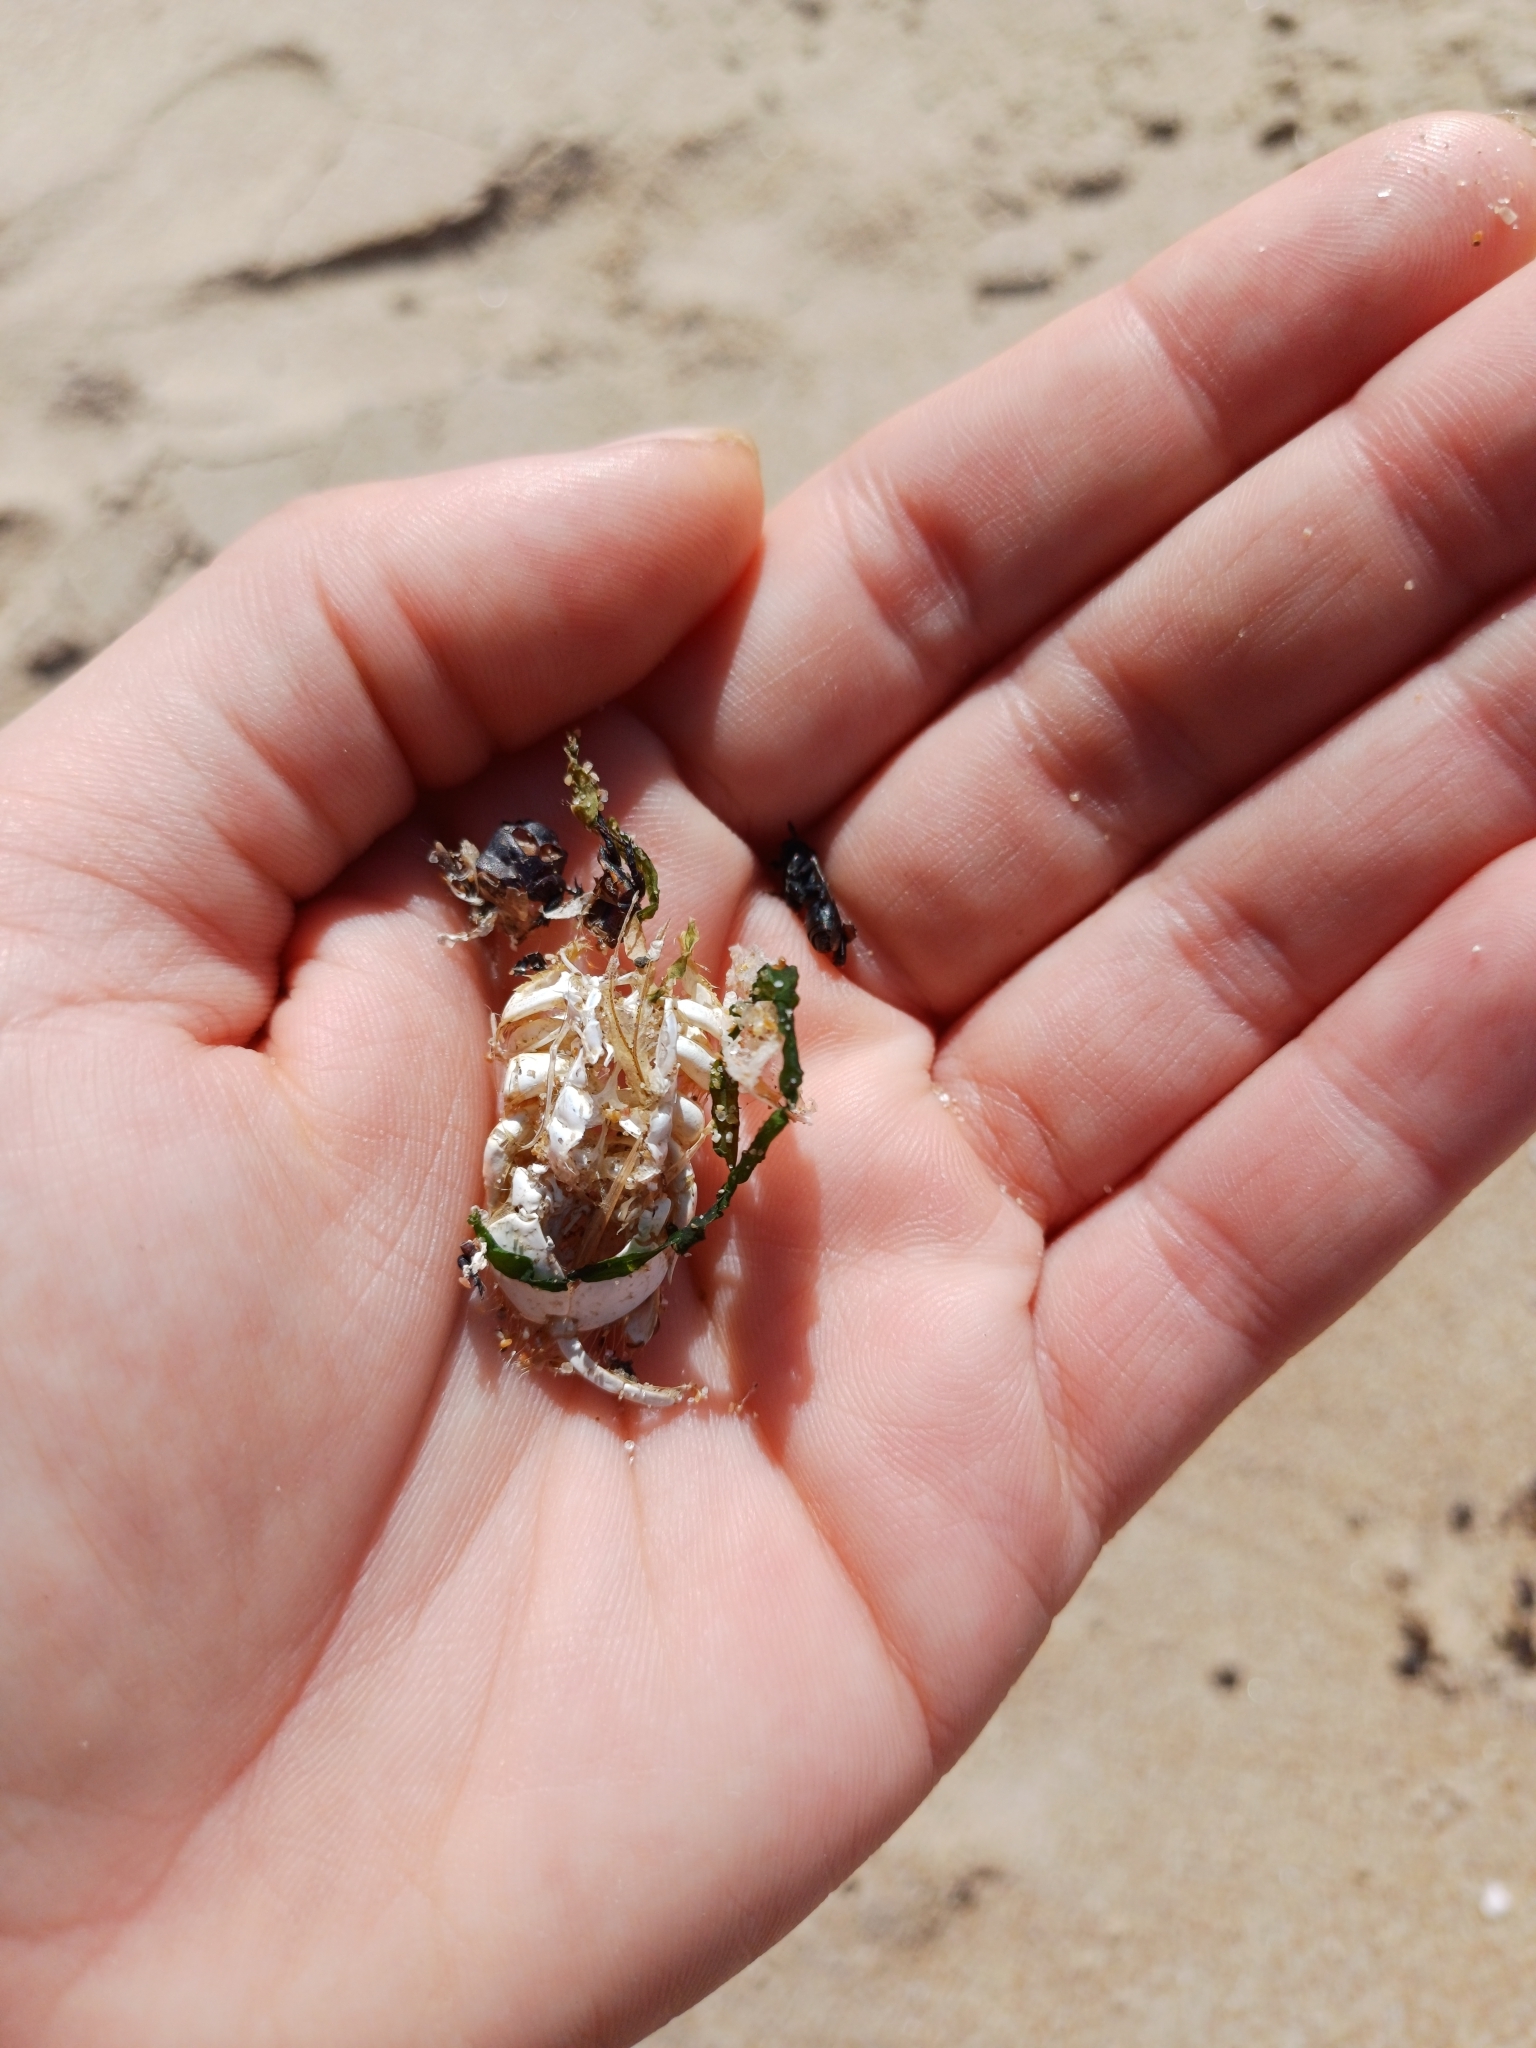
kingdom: Animalia
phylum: Arthropoda
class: Malacostraca
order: Decapoda
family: Hippidae
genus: Emerita
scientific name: Emerita brasiliensis
